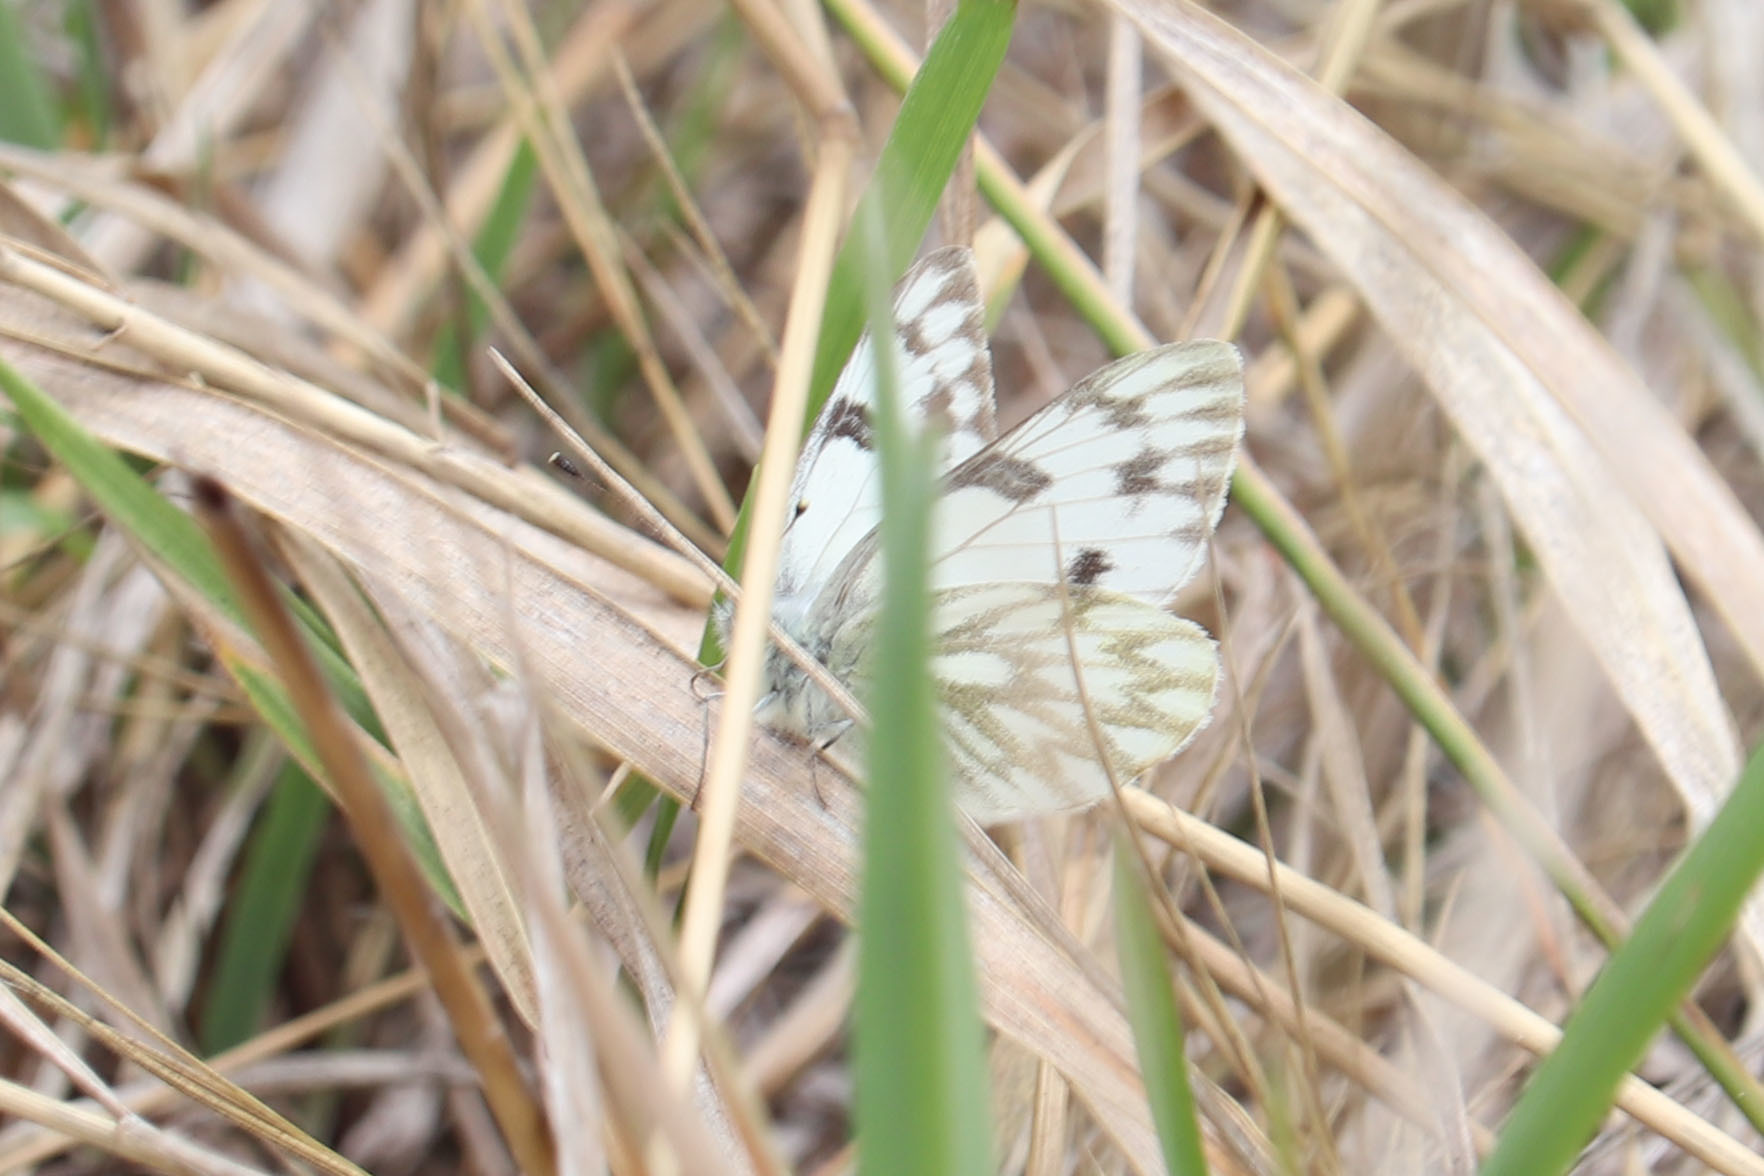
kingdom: Animalia
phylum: Arthropoda
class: Insecta
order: Lepidoptera
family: Pieridae
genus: Pontia
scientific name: Pontia occidentalis
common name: Western white
